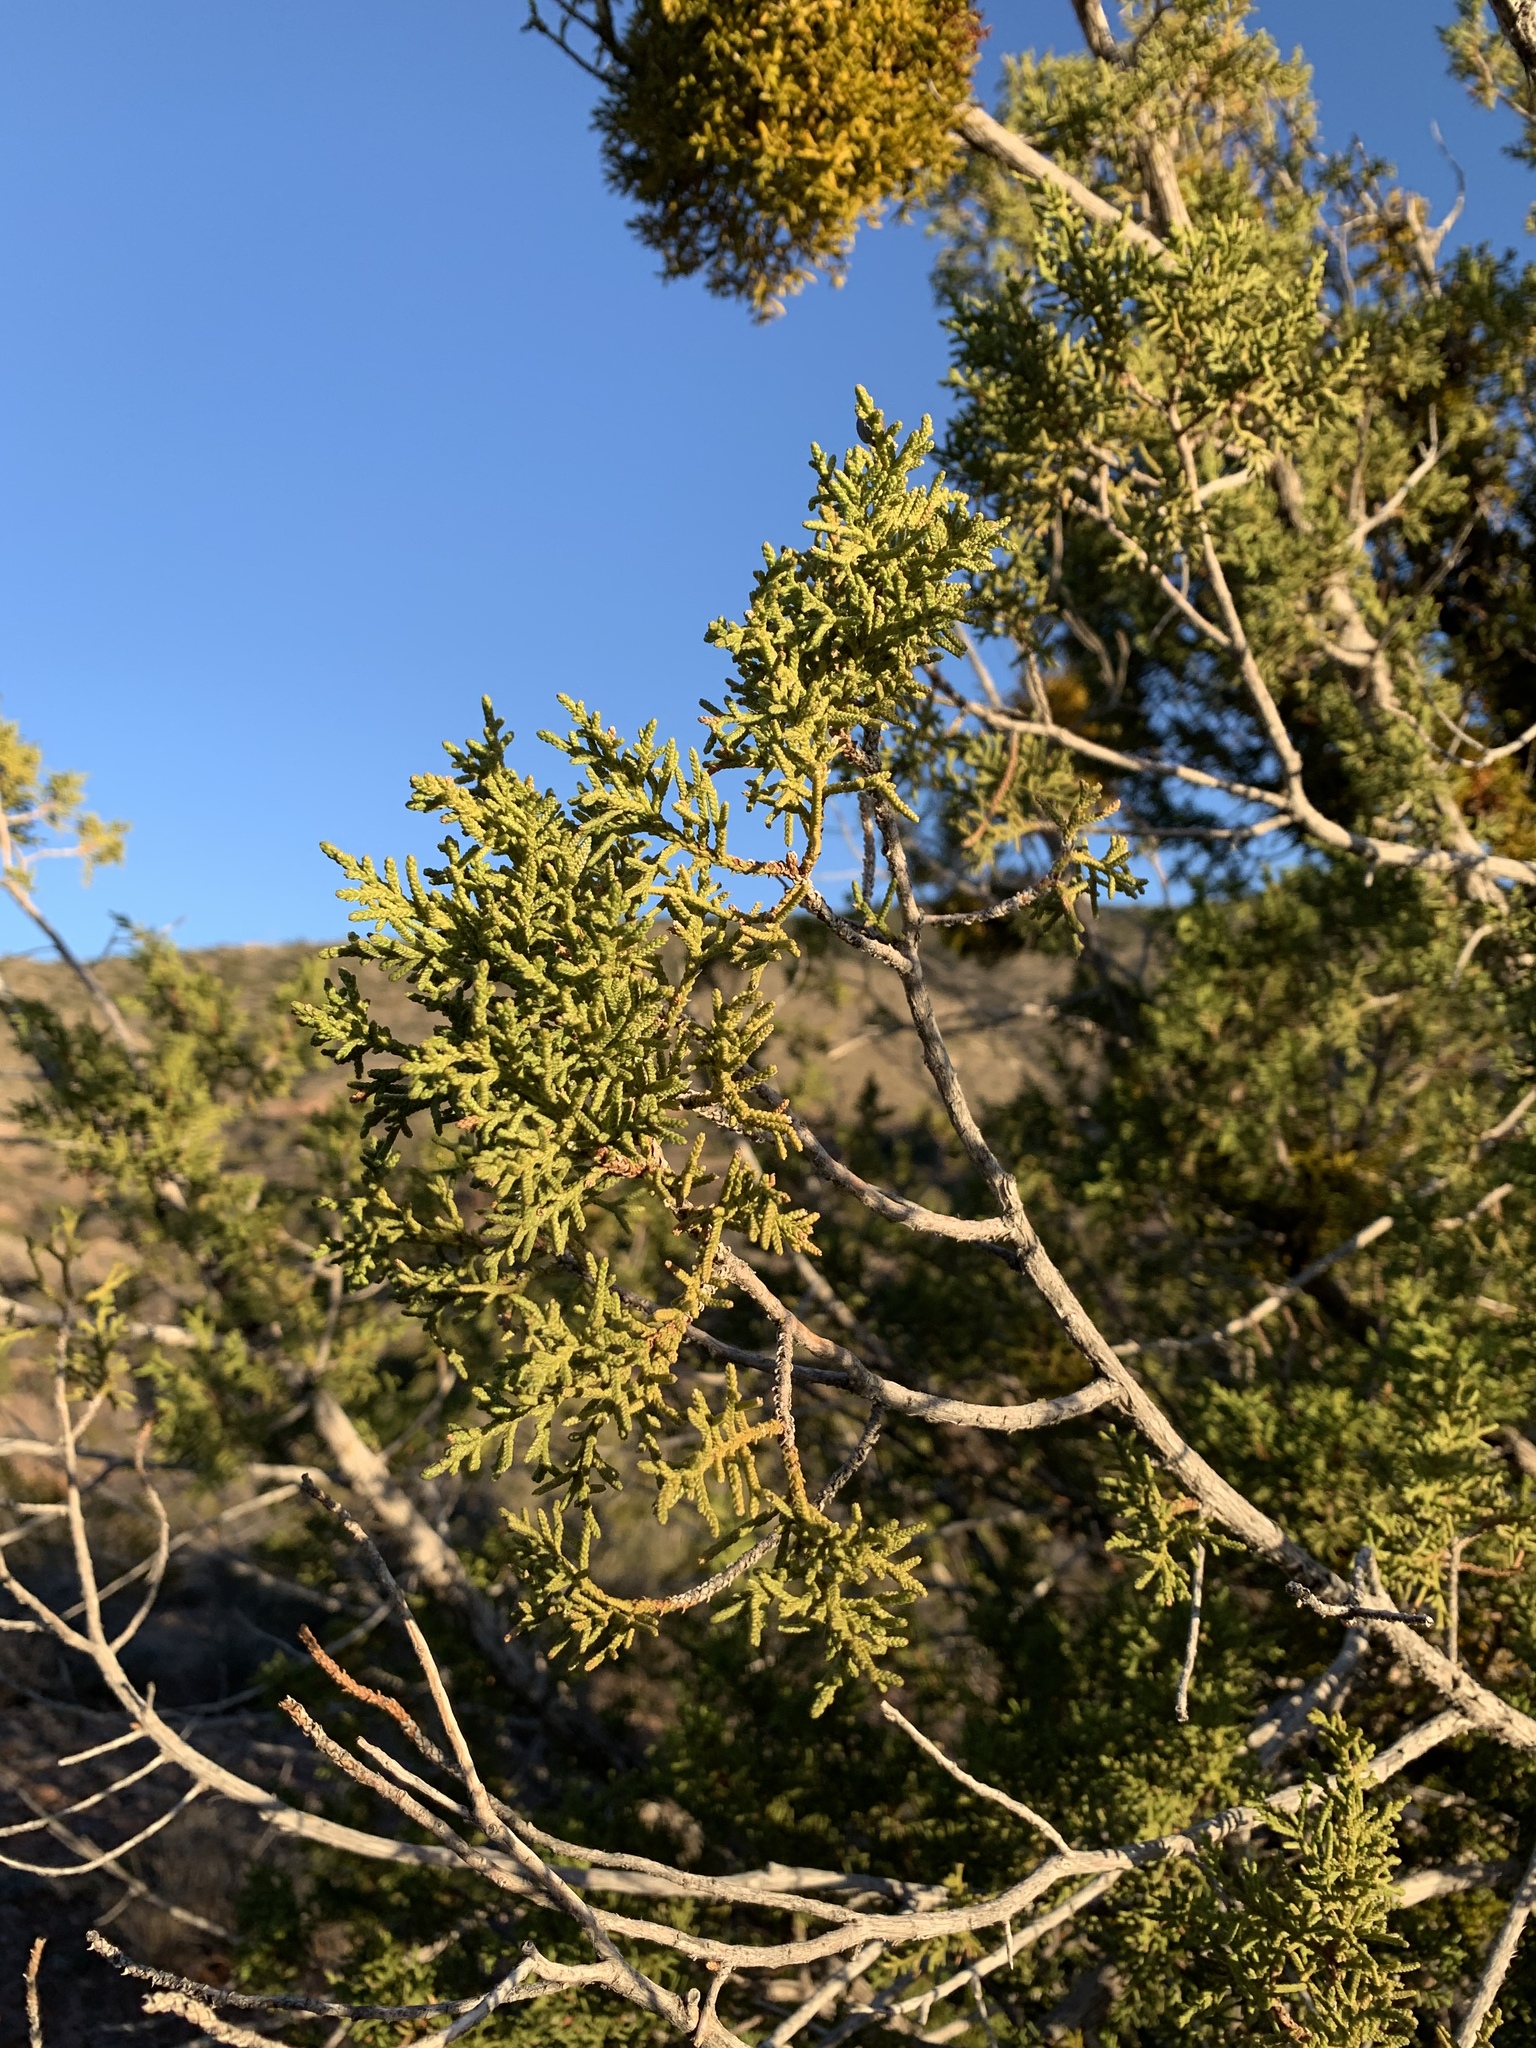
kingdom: Plantae
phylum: Tracheophyta
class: Pinopsida
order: Pinales
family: Cupressaceae
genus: Juniperus
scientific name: Juniperus monosperma
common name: One-seed juniper
